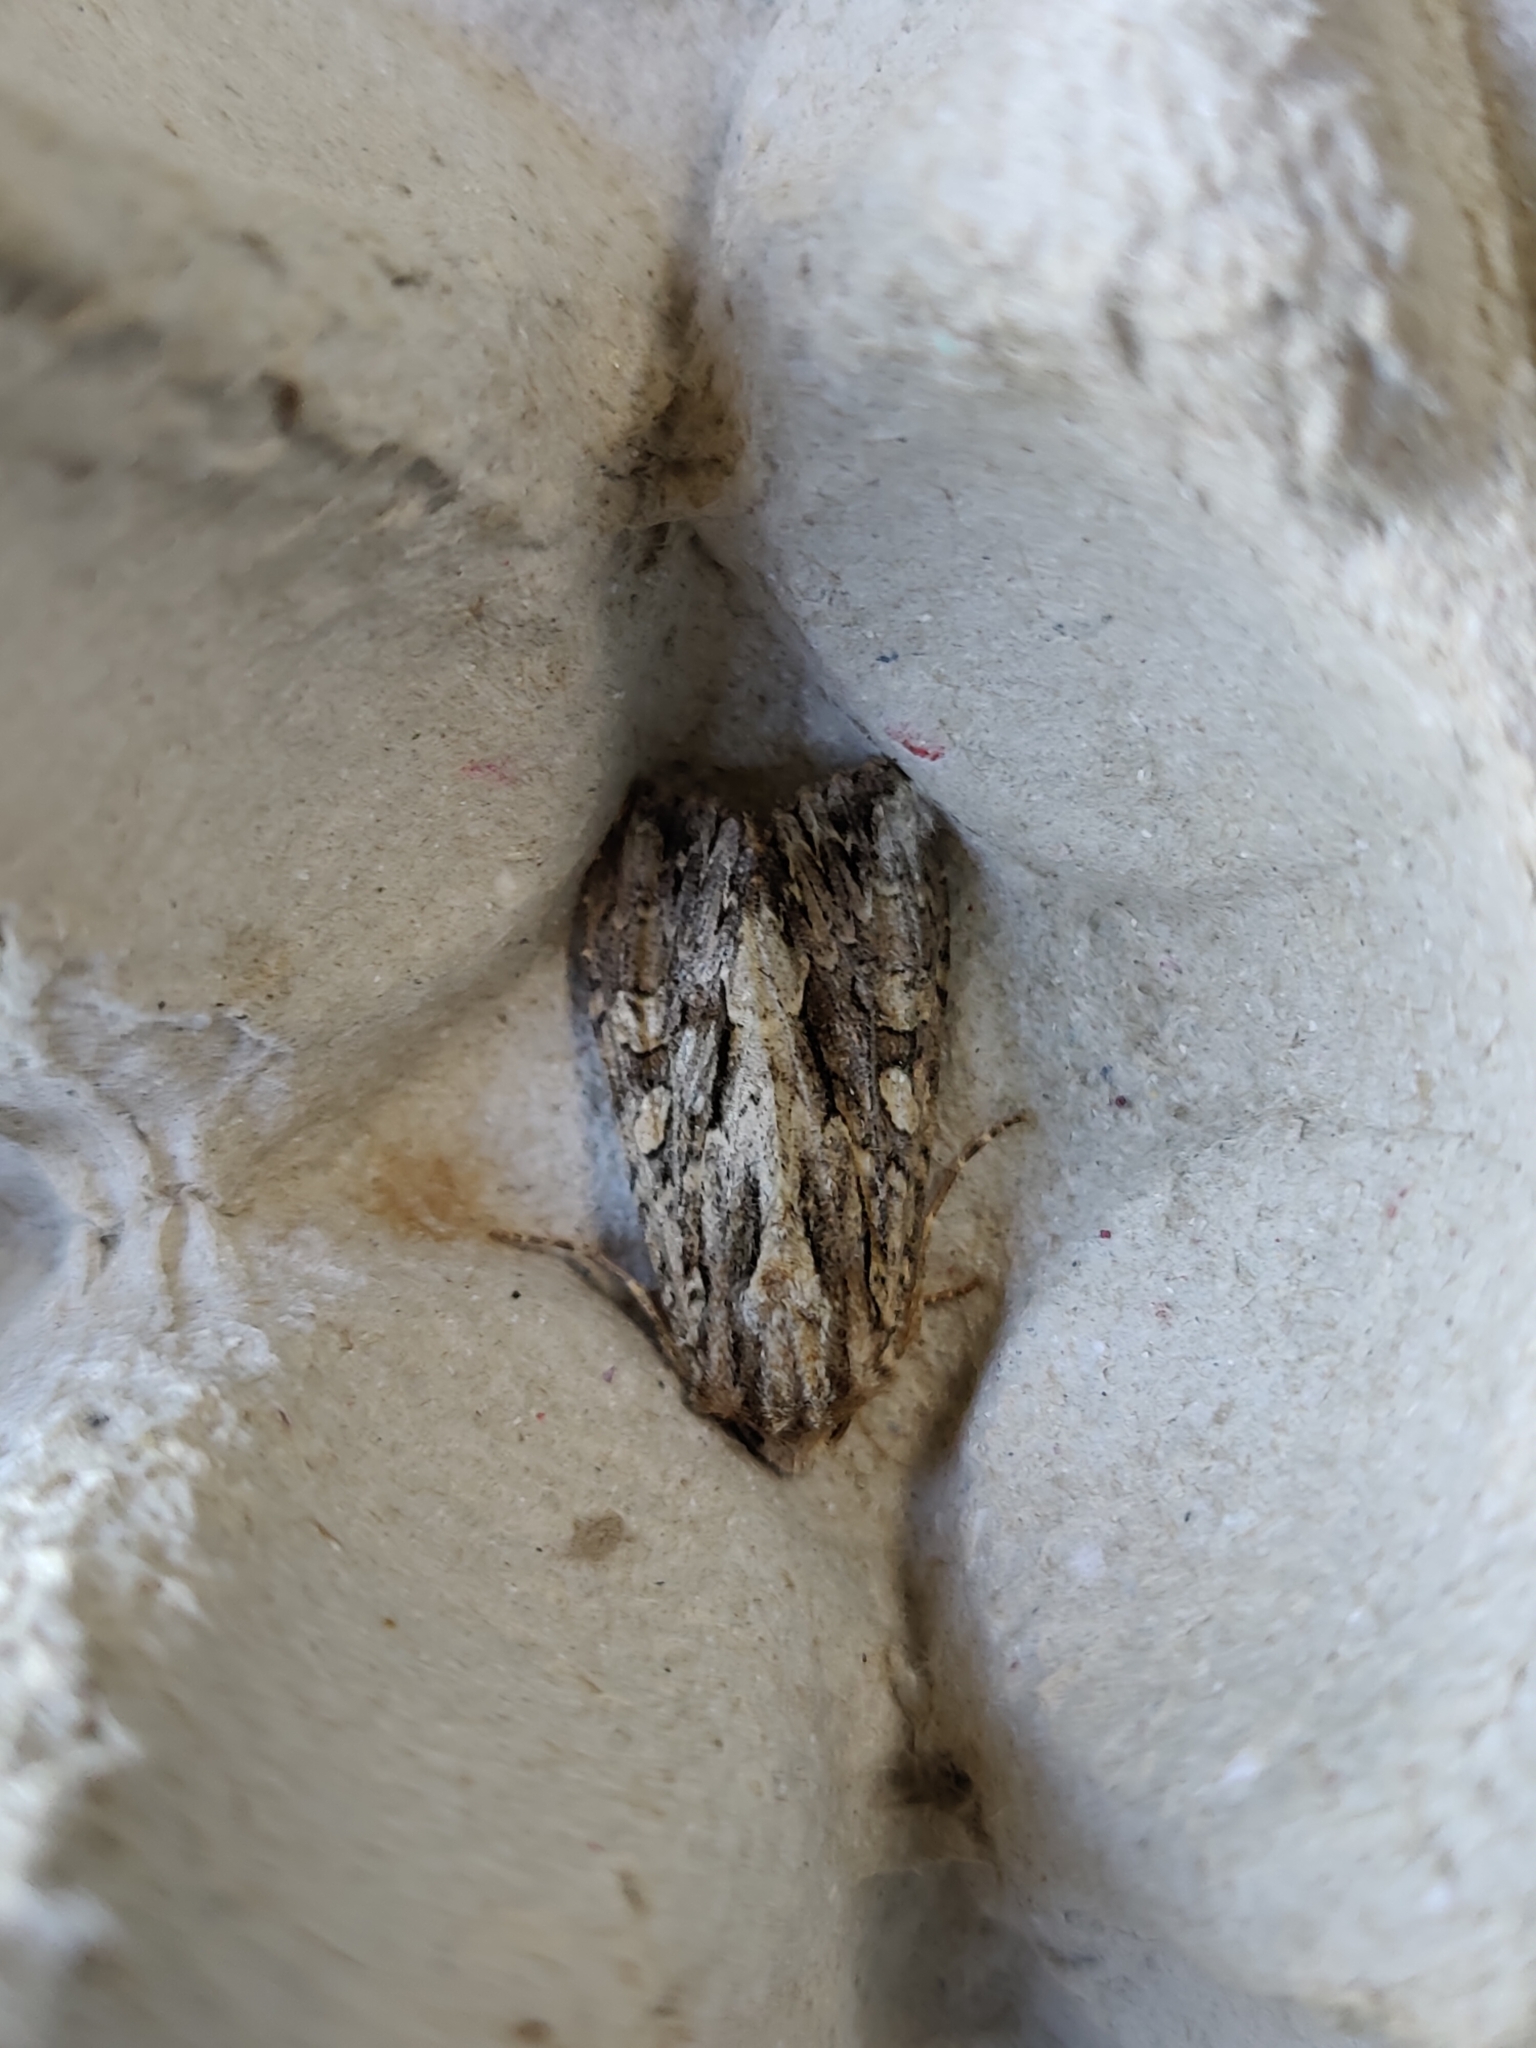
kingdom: Animalia
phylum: Arthropoda
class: Insecta
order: Lepidoptera
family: Noctuidae
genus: Apamea
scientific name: Apamea monoglypha
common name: Dark arches
